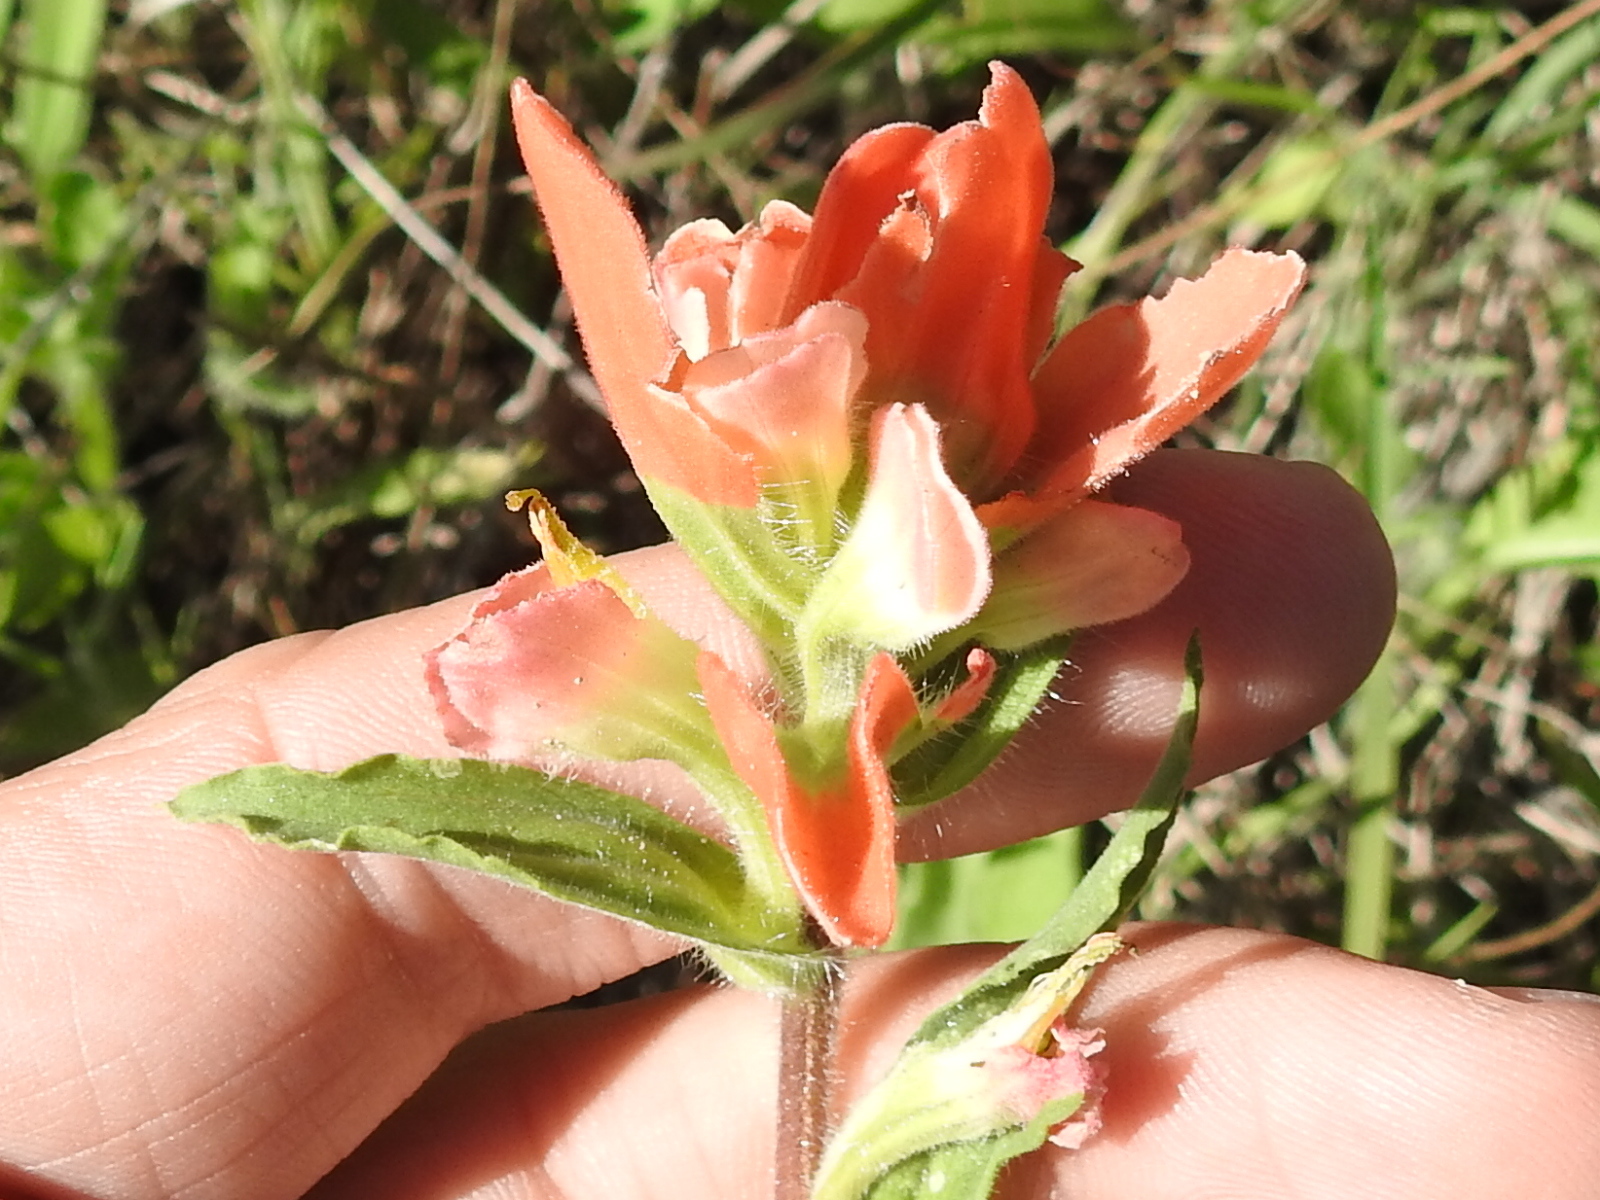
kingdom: Plantae
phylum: Tracheophyta
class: Magnoliopsida
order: Lamiales
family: Orobanchaceae
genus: Castilleja
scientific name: Castilleja indivisa
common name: Texas paintbrush
